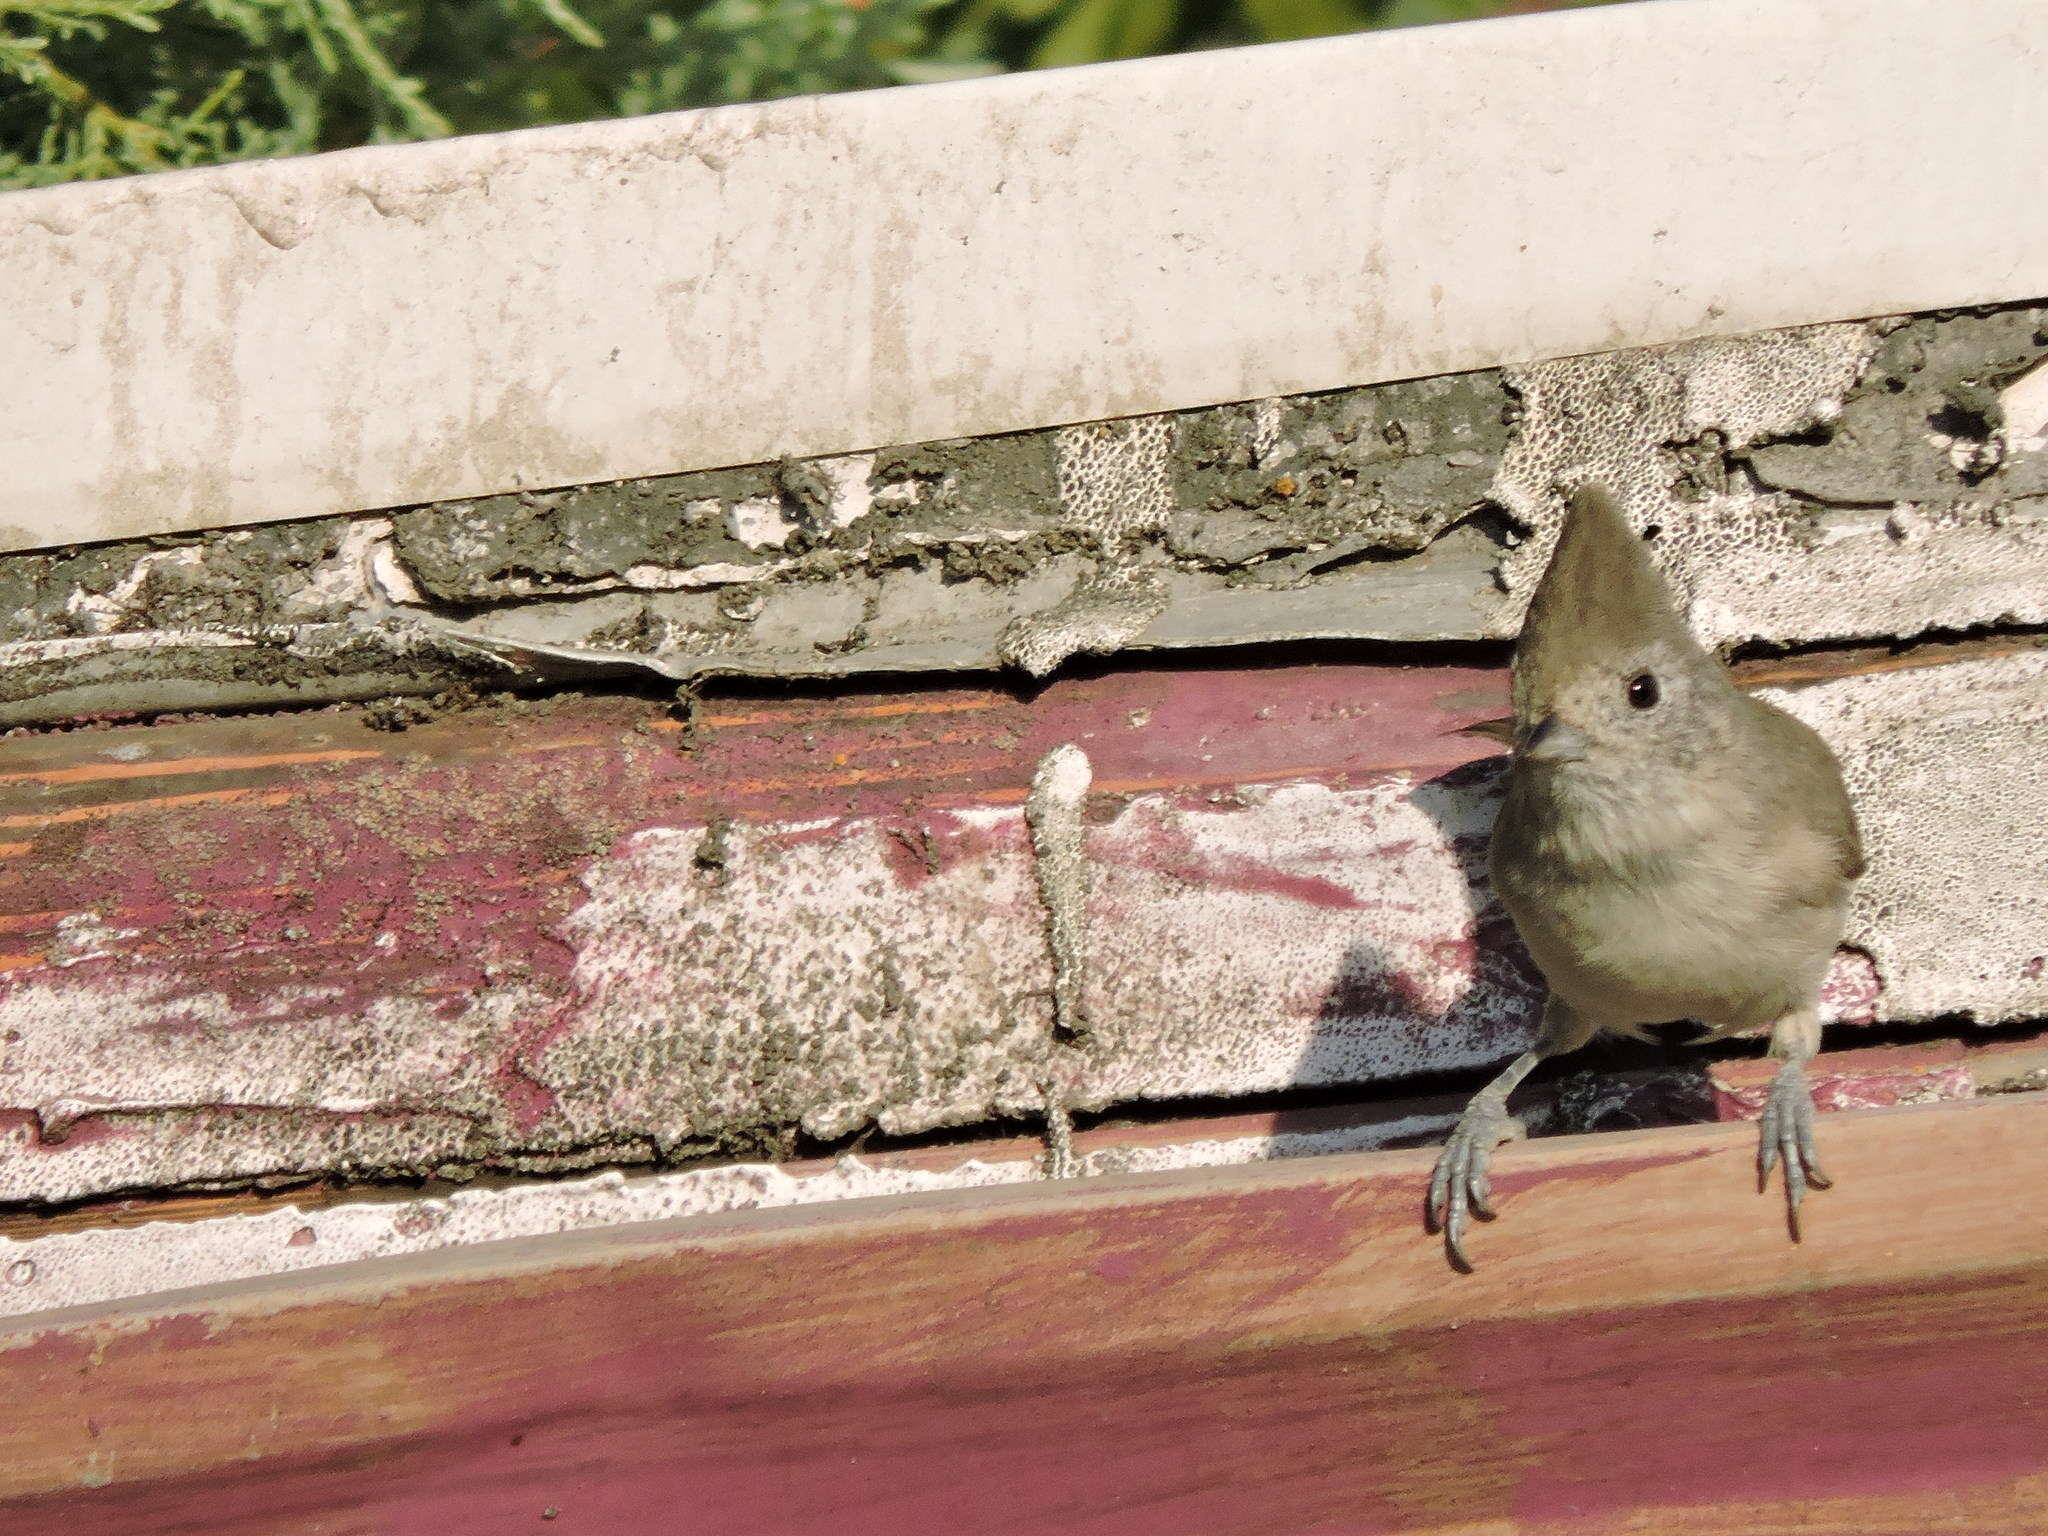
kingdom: Animalia
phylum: Chordata
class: Aves
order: Passeriformes
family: Paridae
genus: Baeolophus
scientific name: Baeolophus inornatus
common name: Oak titmouse
